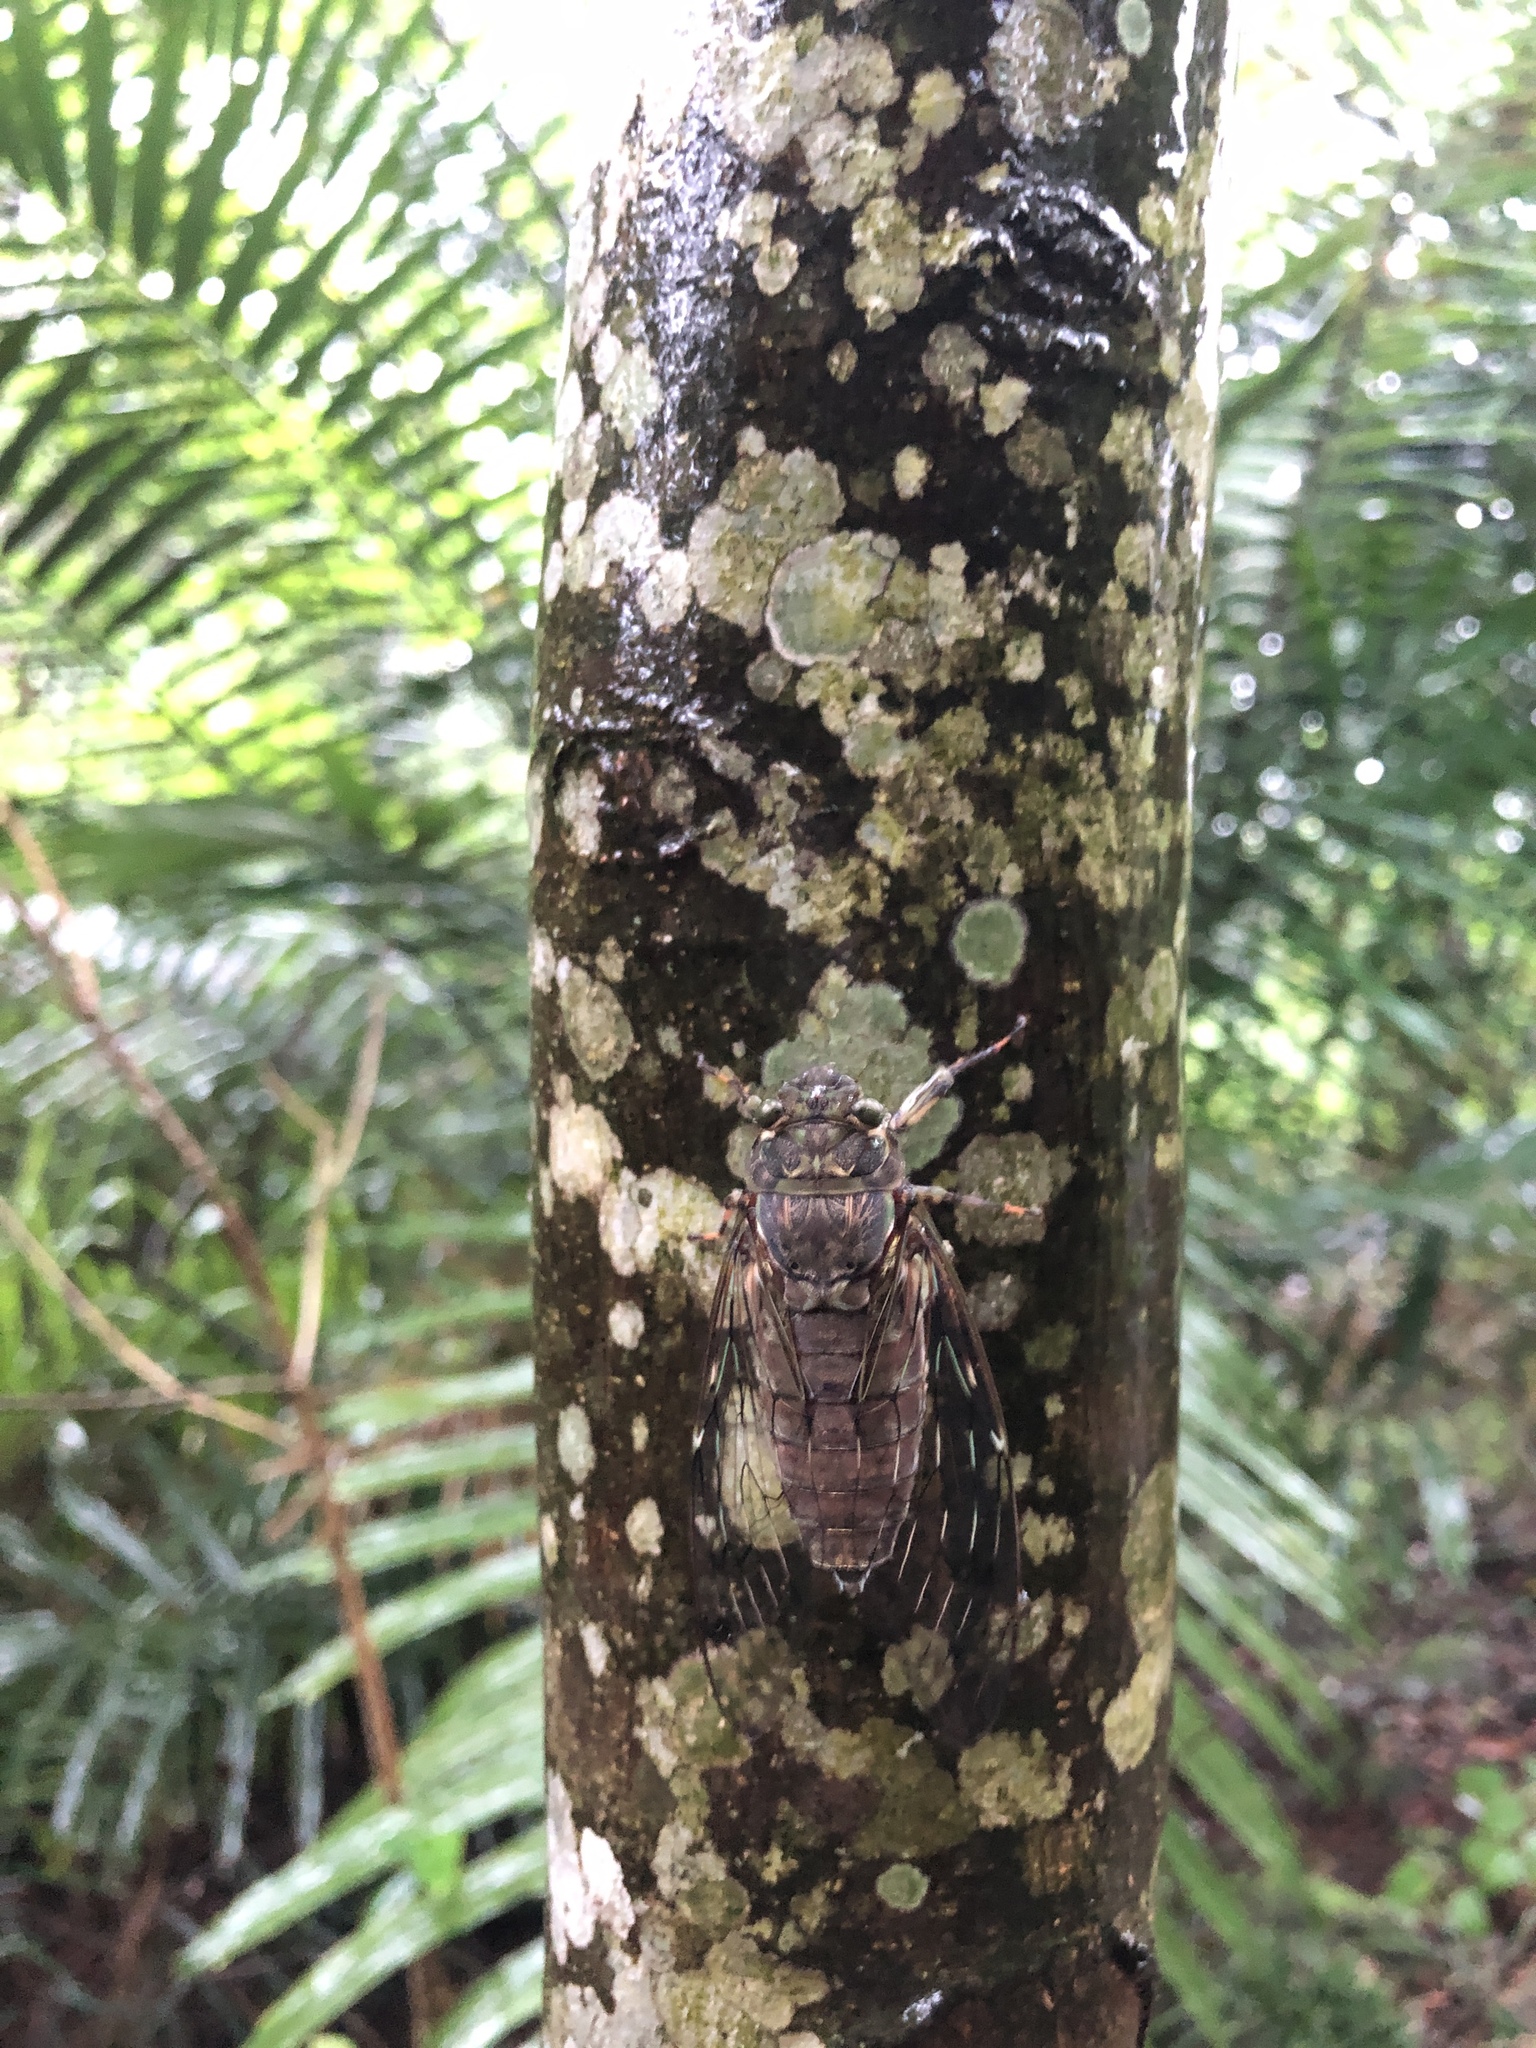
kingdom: Animalia
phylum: Arthropoda
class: Insecta
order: Hemiptera
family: Cicadidae
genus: Pomponia
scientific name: Pomponia yayeyamana
